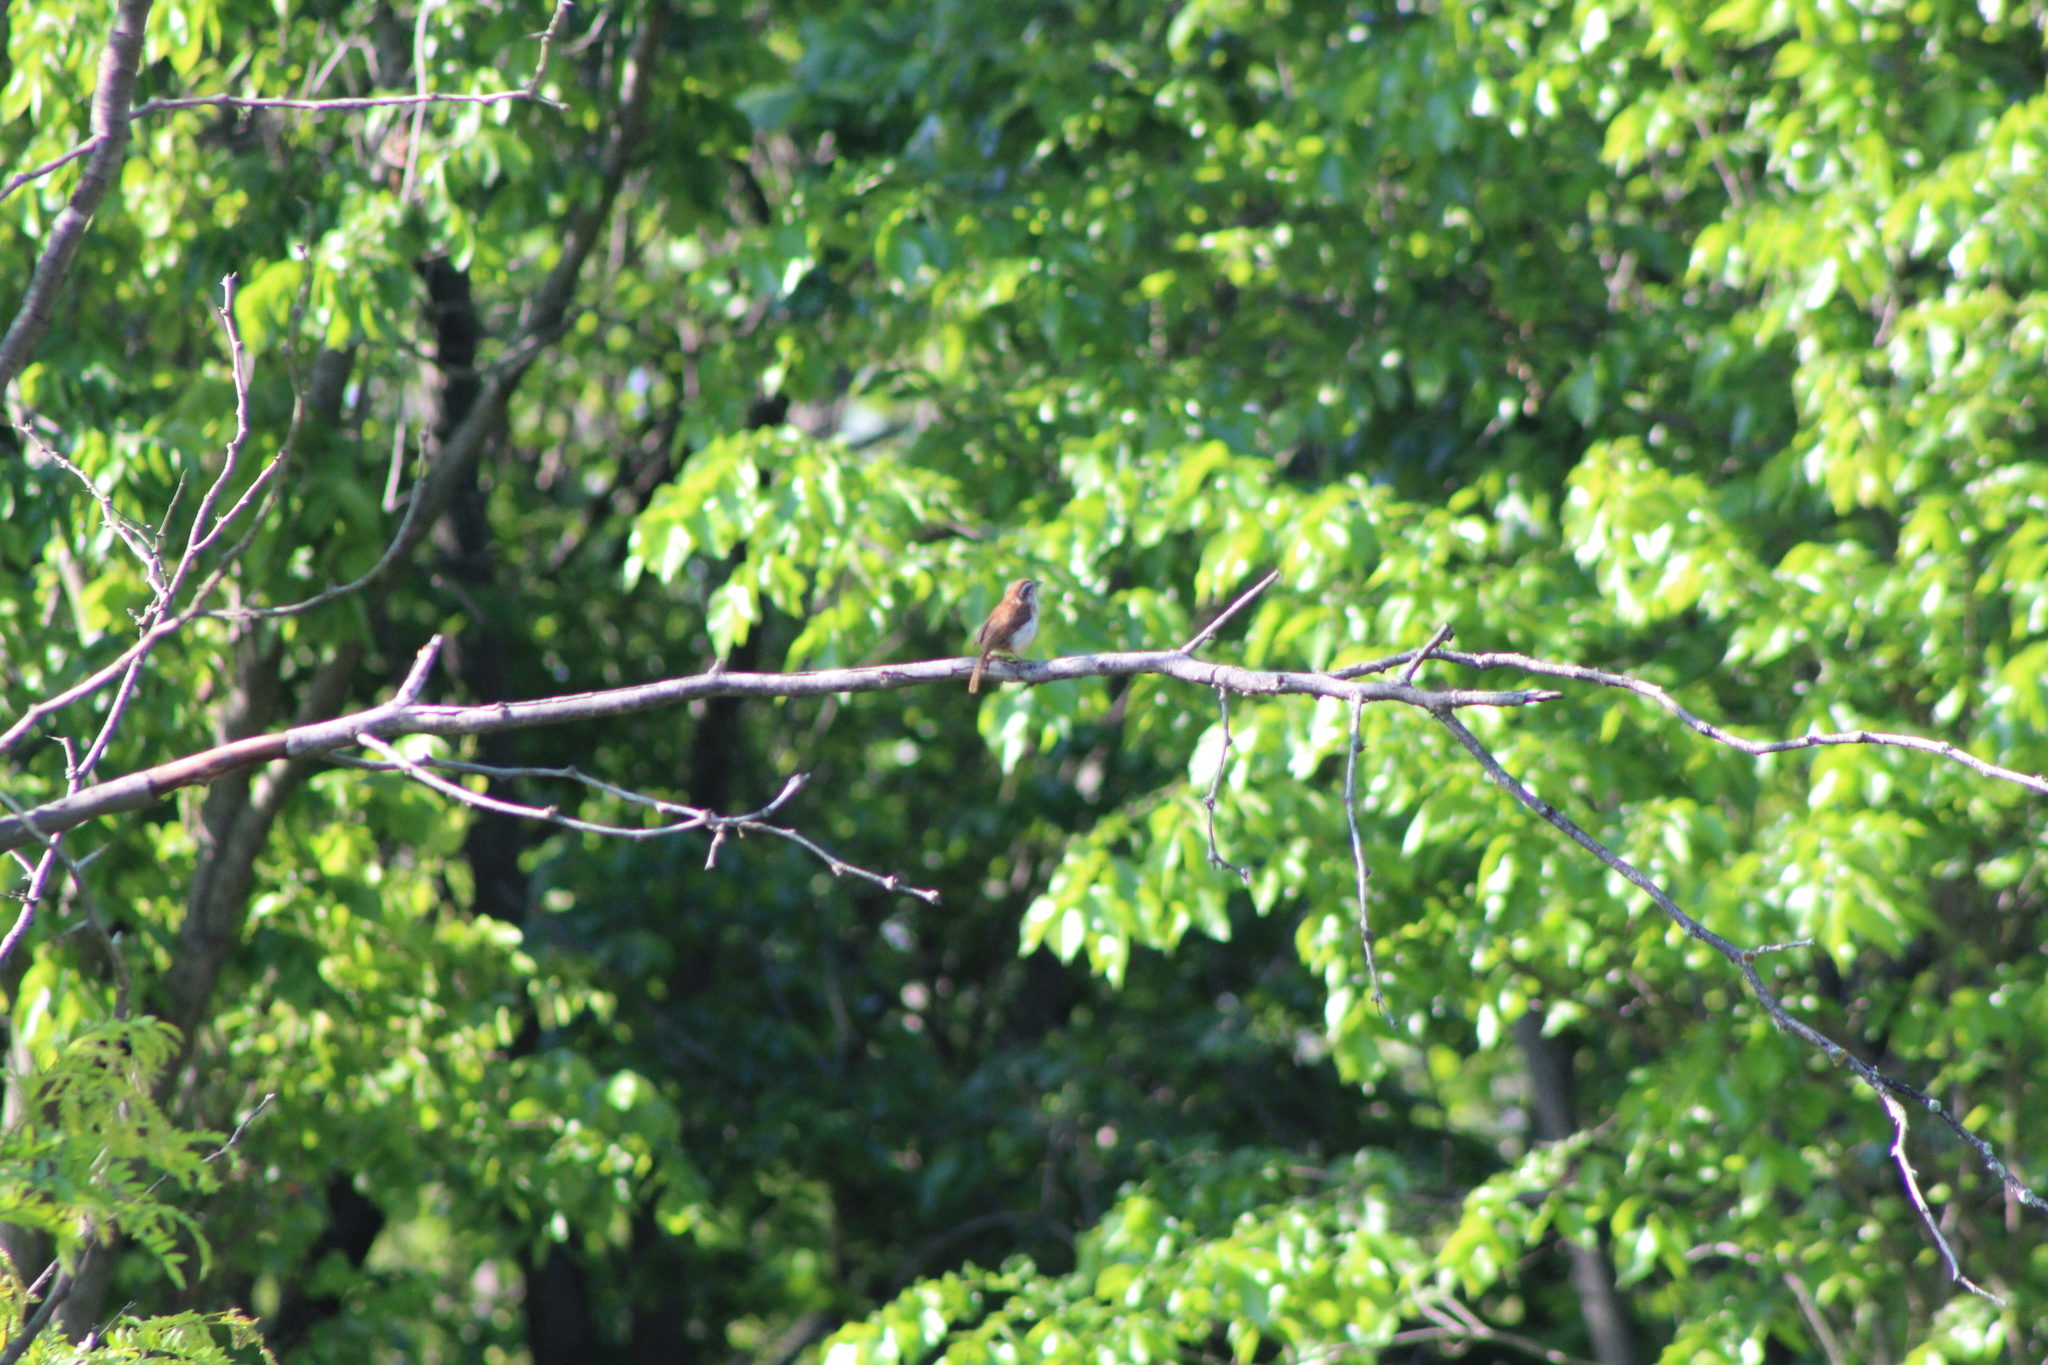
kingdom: Animalia
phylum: Chordata
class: Aves
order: Passeriformes
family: Troglodytidae
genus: Thryothorus
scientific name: Thryothorus ludovicianus
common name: Carolina wren
